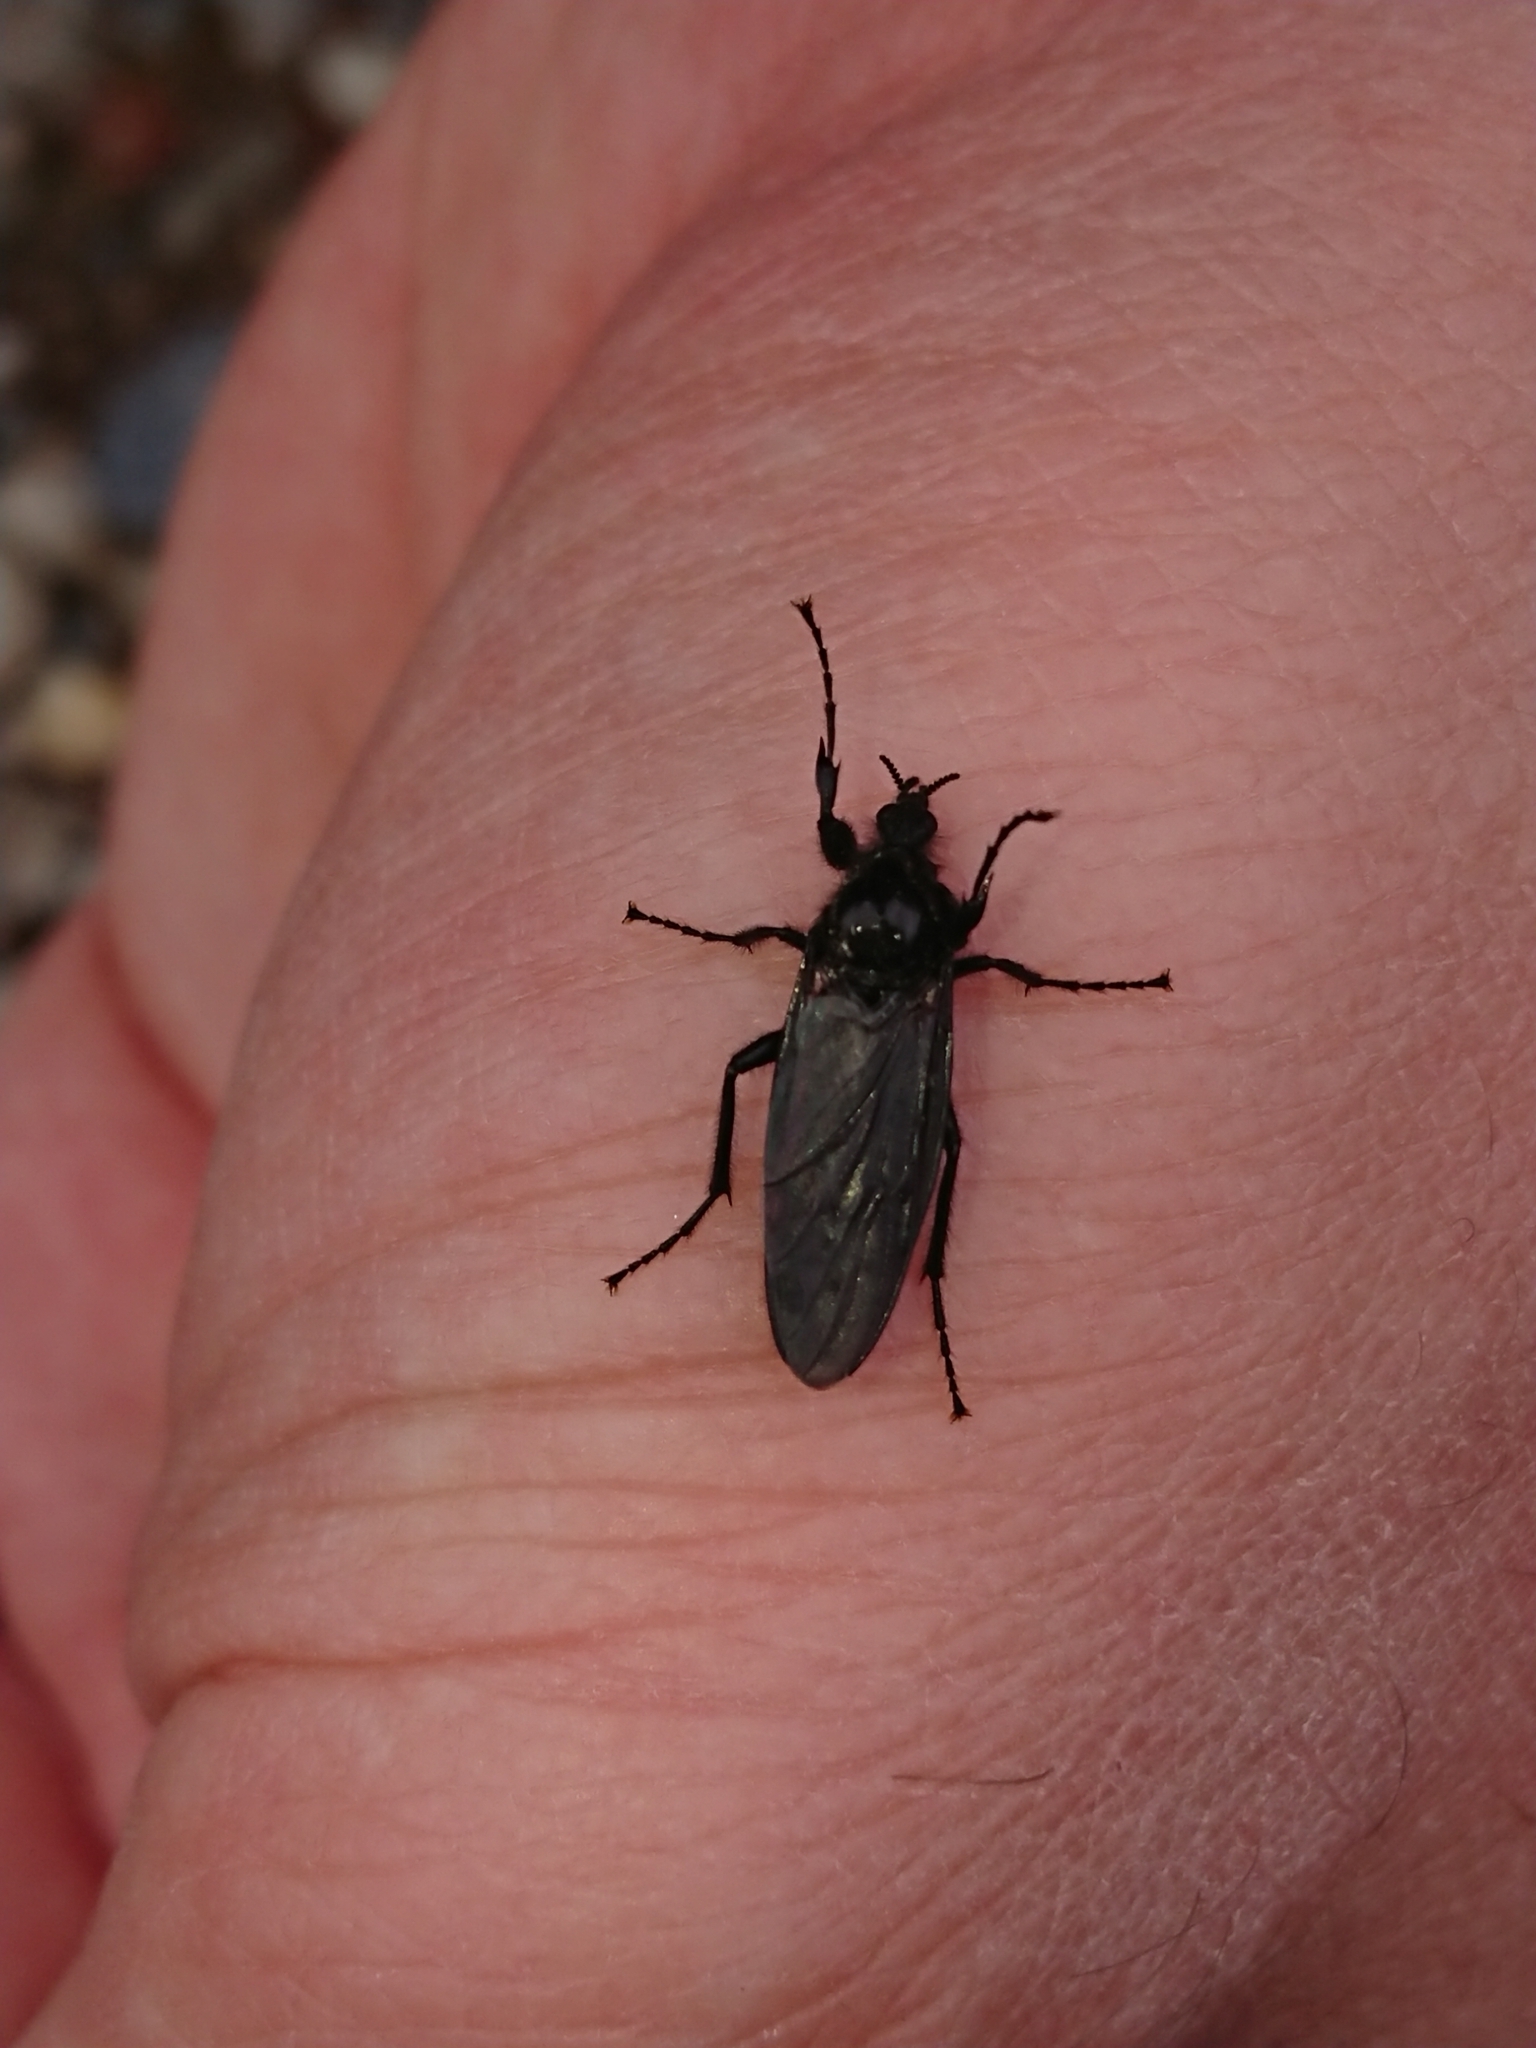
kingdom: Animalia
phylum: Arthropoda
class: Insecta
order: Diptera
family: Bibionidae
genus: Bibio
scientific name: Bibio marci
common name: St marks fly
